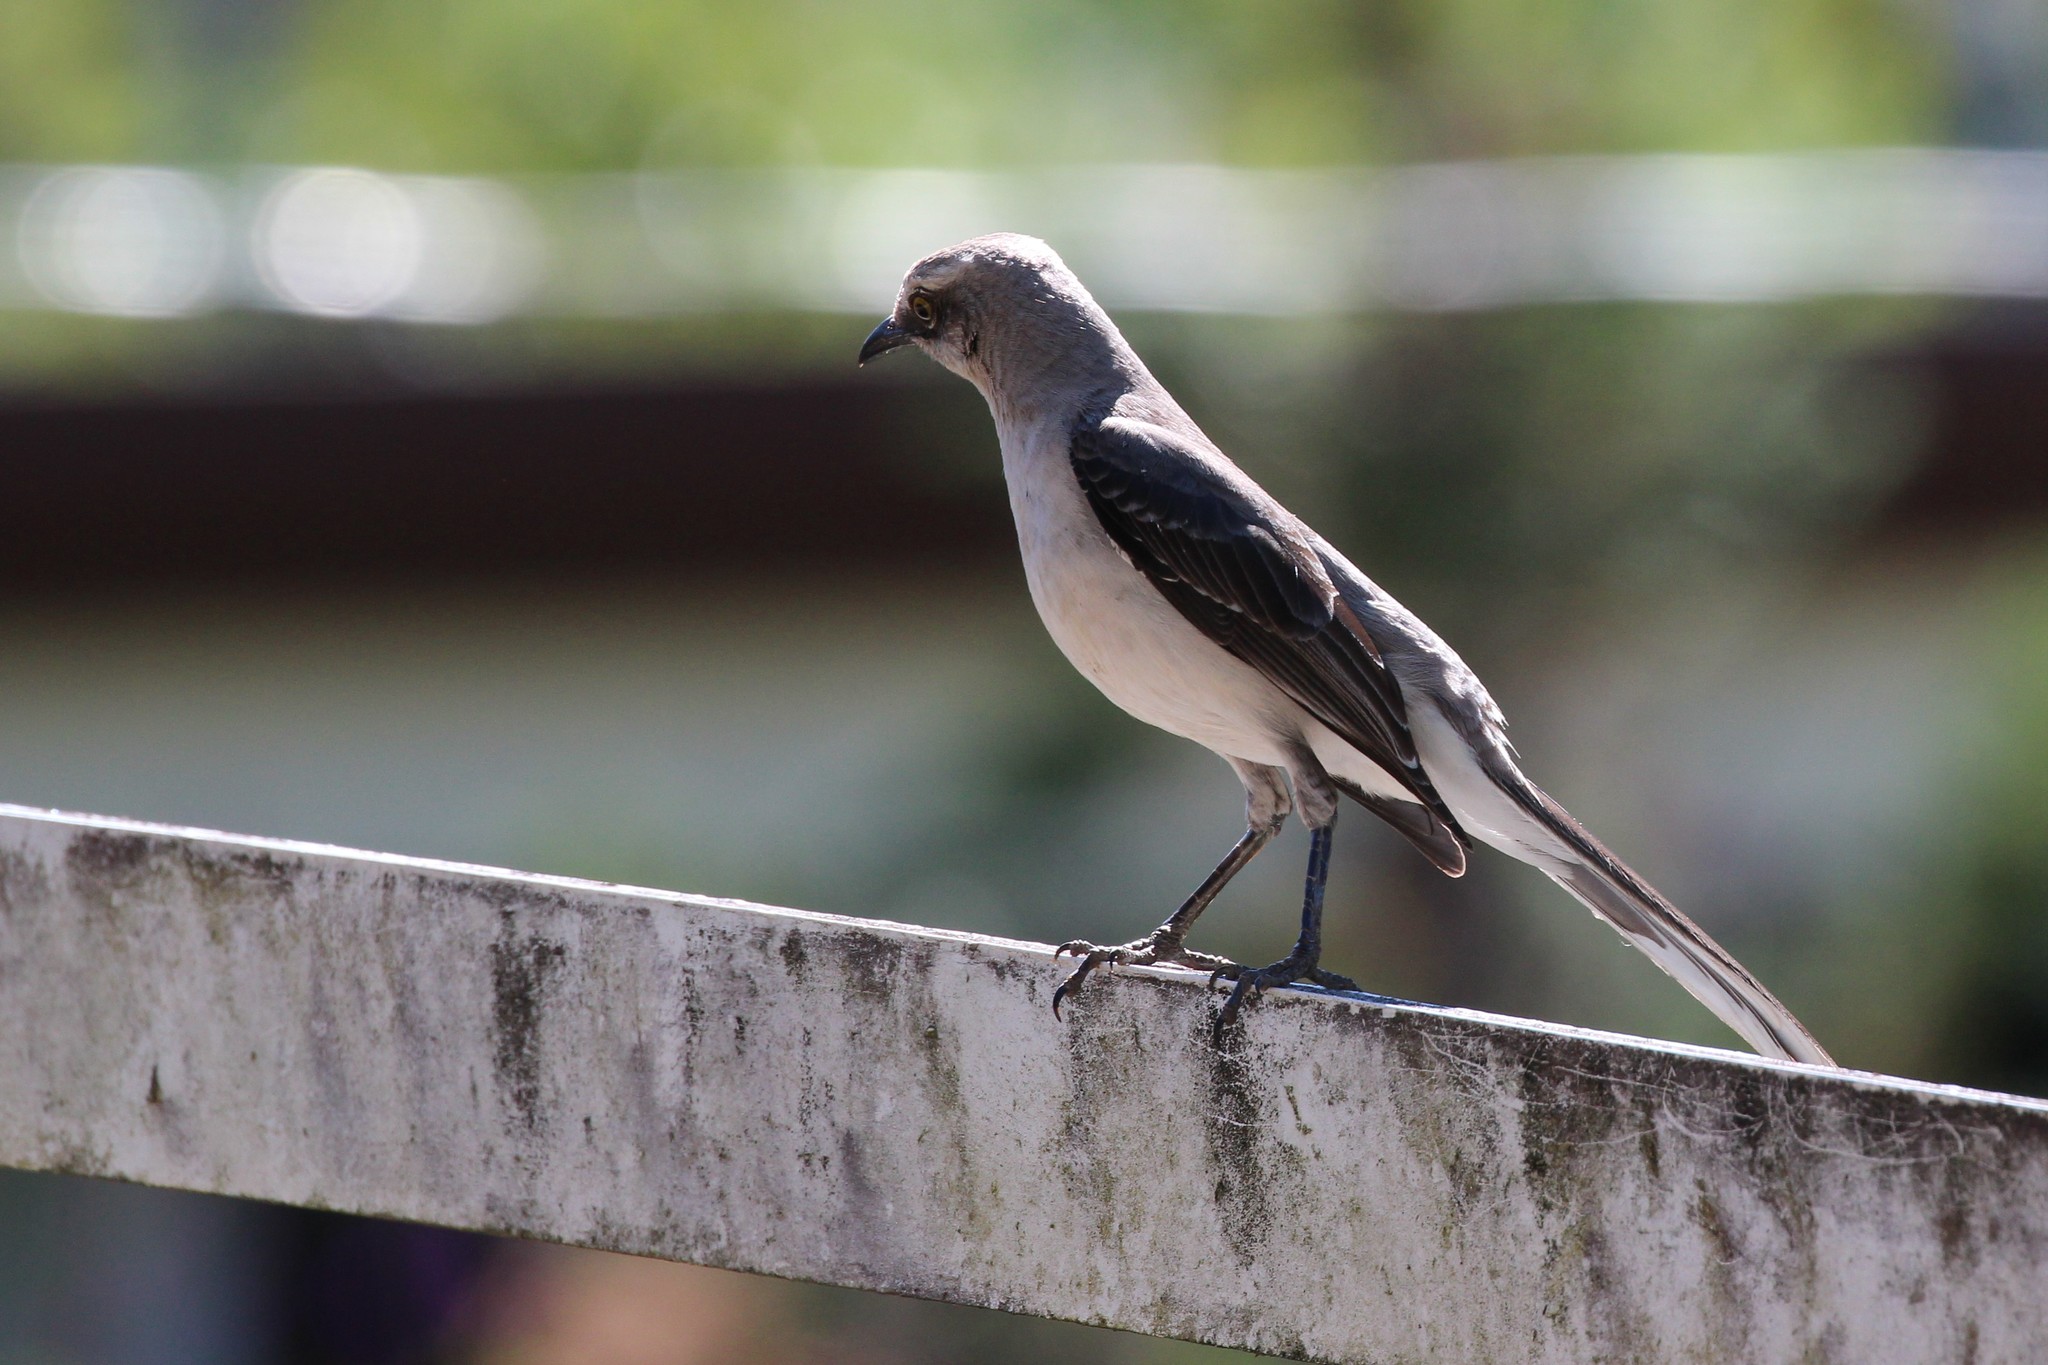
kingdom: Animalia
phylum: Chordata
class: Aves
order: Passeriformes
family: Mimidae
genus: Mimus
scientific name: Mimus gilvus
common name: Tropical mockingbird
